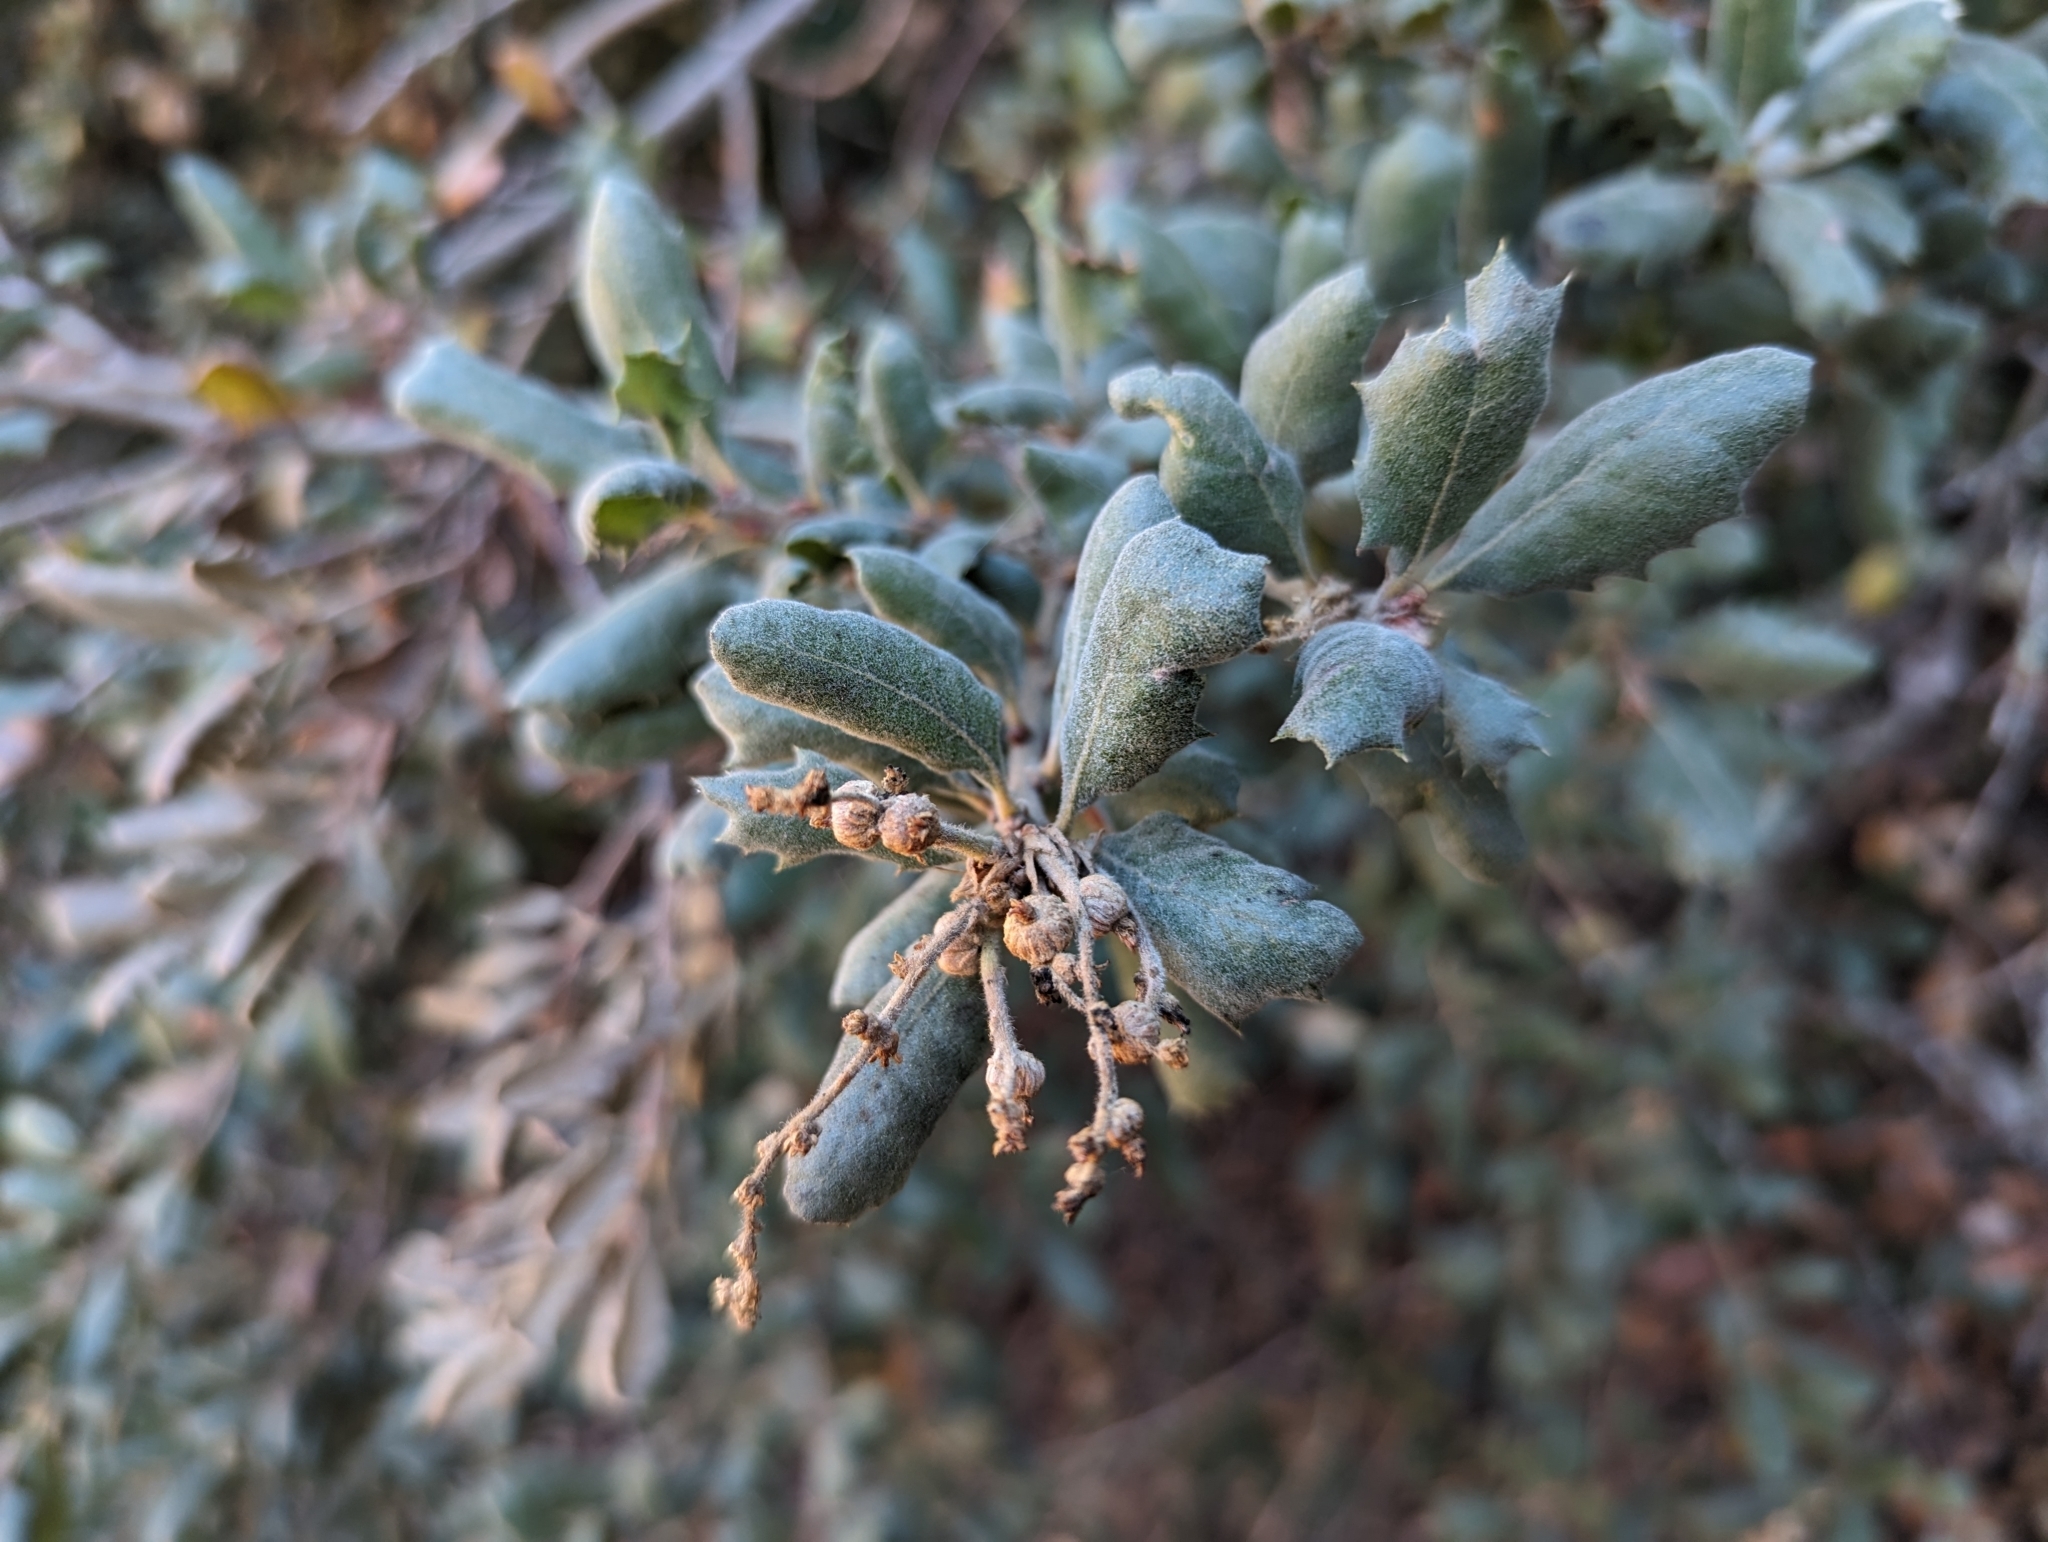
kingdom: Plantae
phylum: Tracheophyta
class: Magnoliopsida
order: Fagales
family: Fagaceae
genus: Quercus
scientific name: Quercus durata
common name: Leather oak
